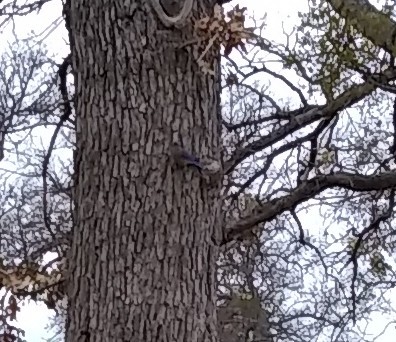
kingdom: Animalia
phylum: Chordata
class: Aves
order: Passeriformes
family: Turdidae
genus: Sialia
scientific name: Sialia sialis
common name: Eastern bluebird
